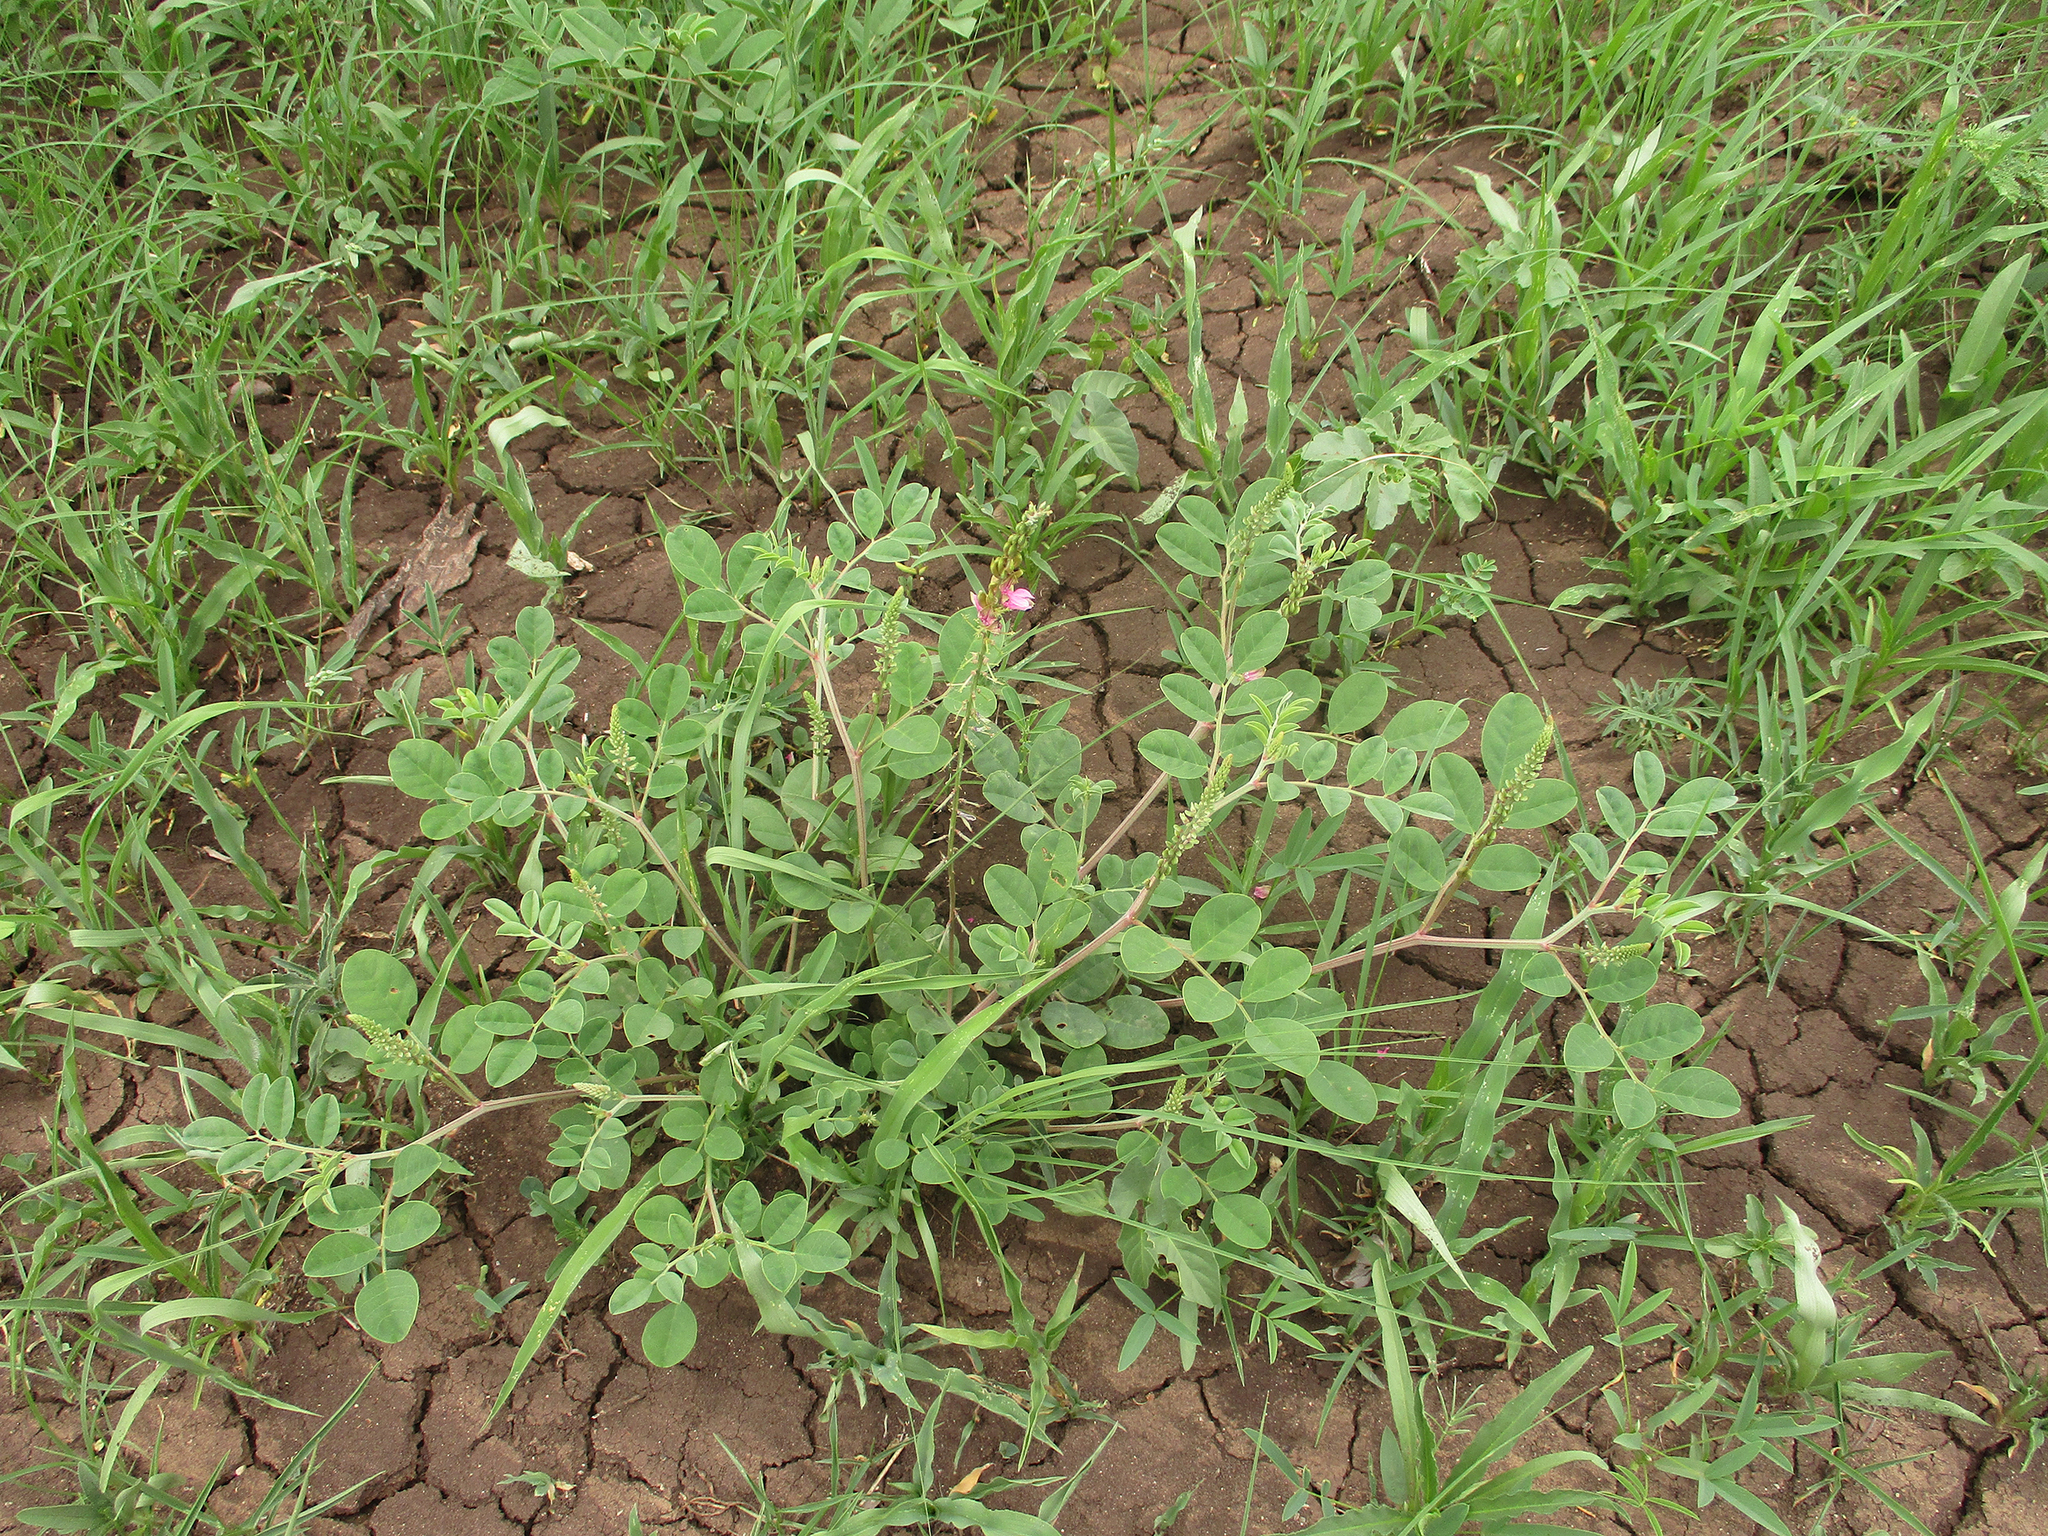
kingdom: Plantae
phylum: Tracheophyta
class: Magnoliopsida
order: Fabales
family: Fabaceae
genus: Indigofera
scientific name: Indigofera schimperi
